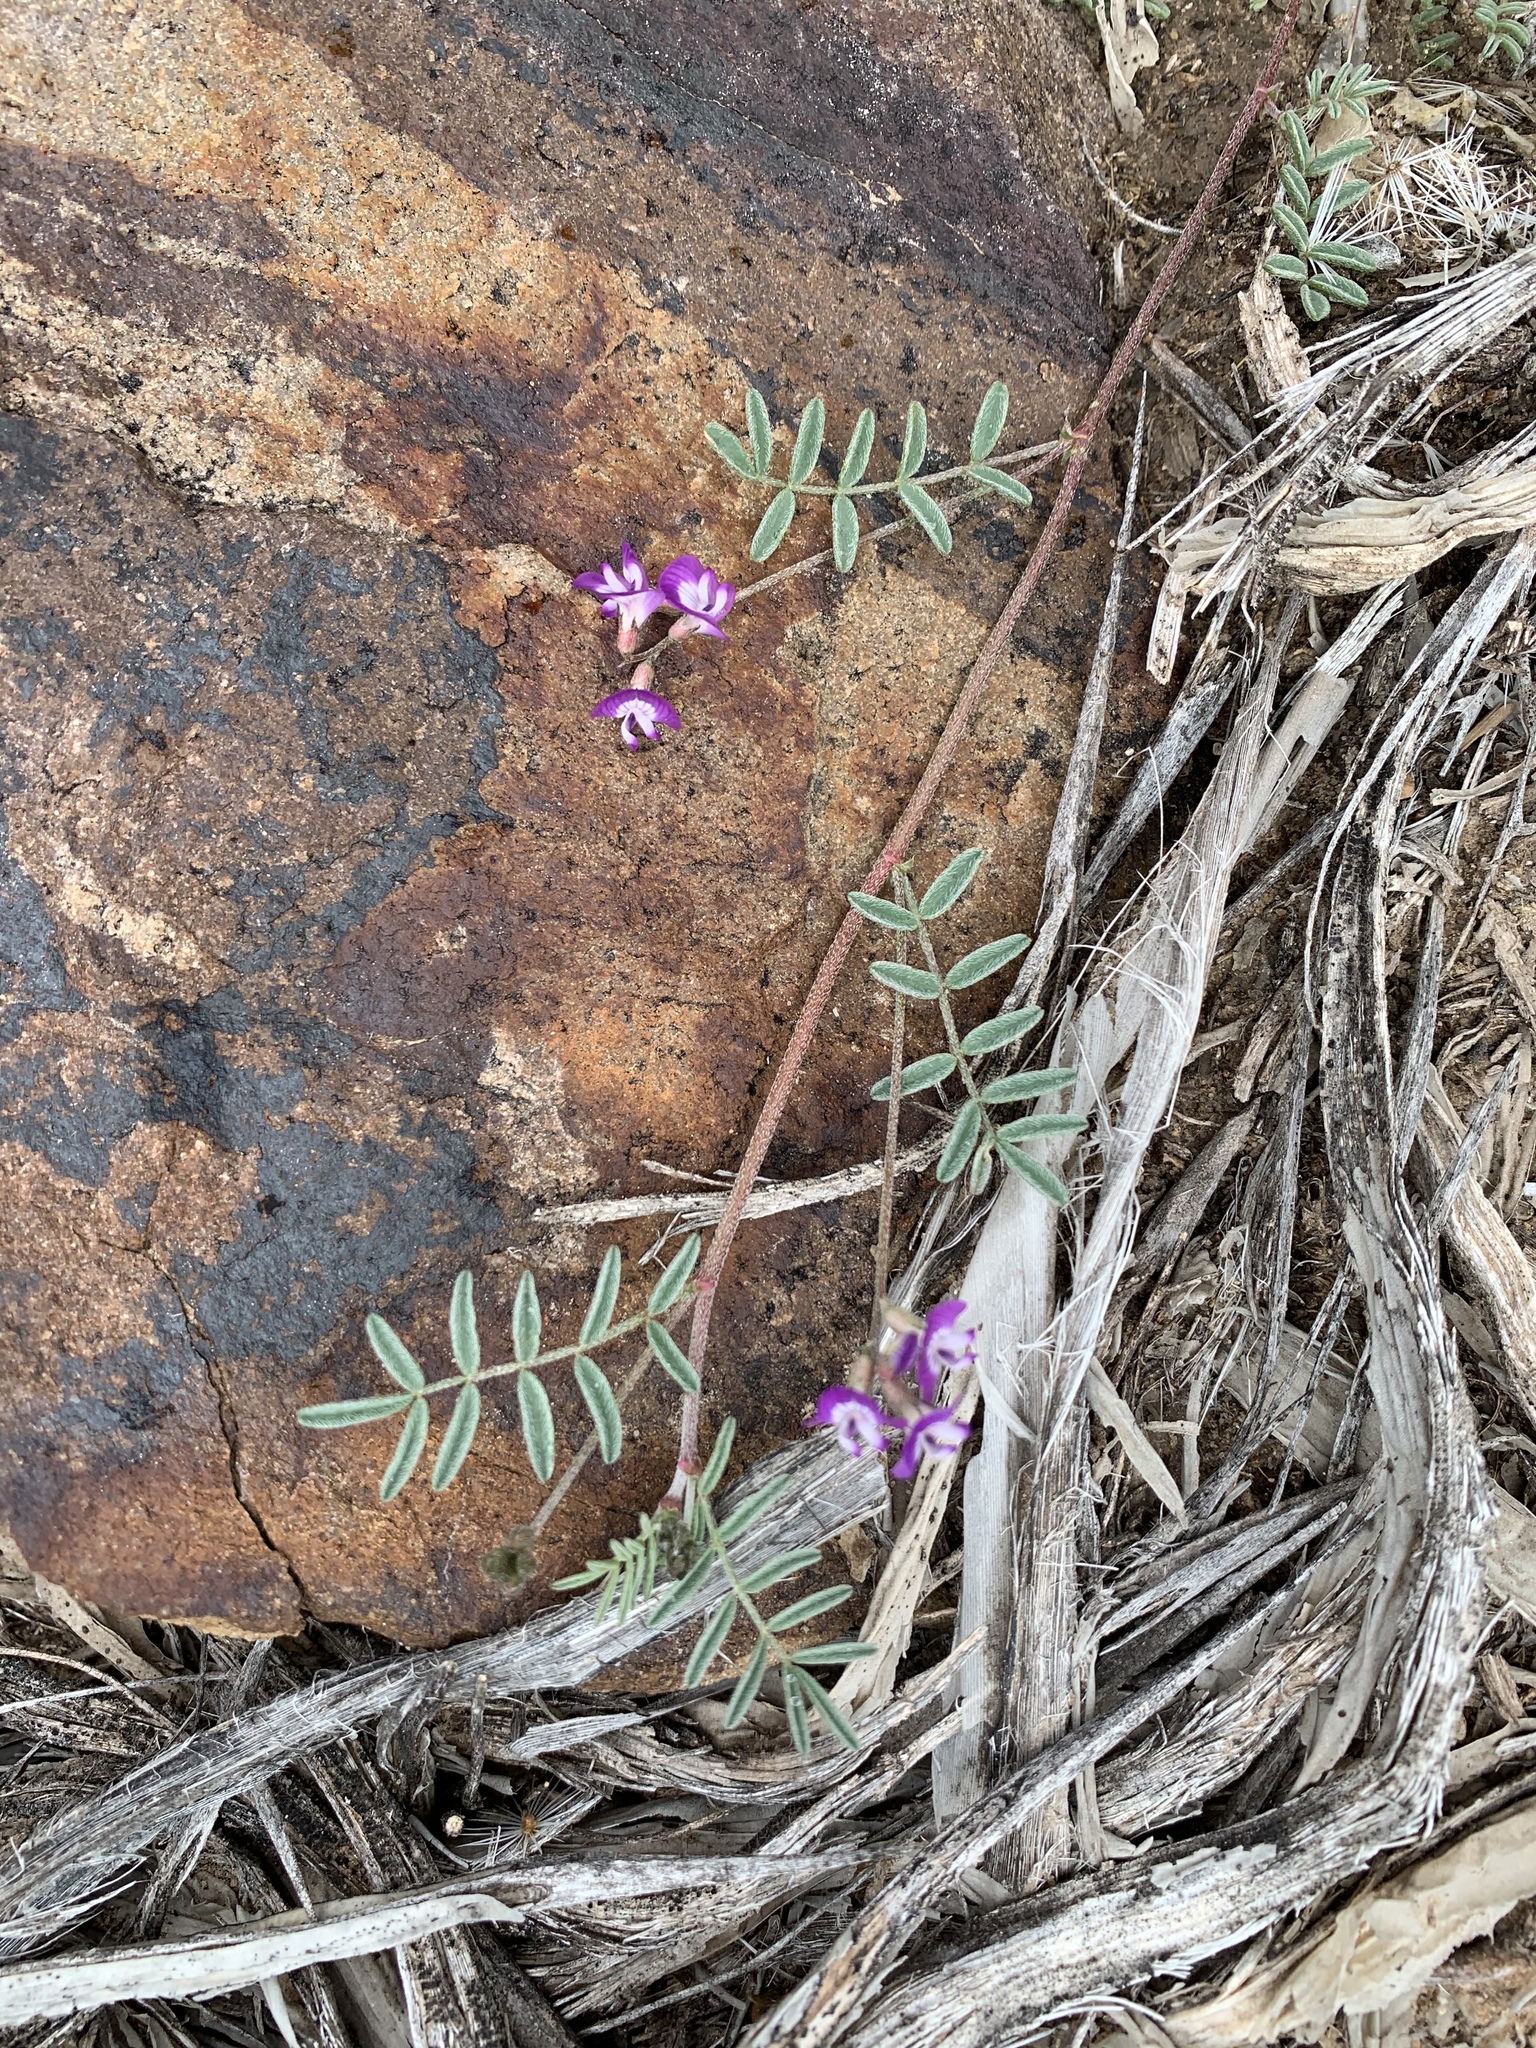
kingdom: Plantae
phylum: Tracheophyta
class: Magnoliopsida
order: Fabales
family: Fabaceae
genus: Astragalus
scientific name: Astragalus nuttallianus
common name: Smallflowered milkvetch
